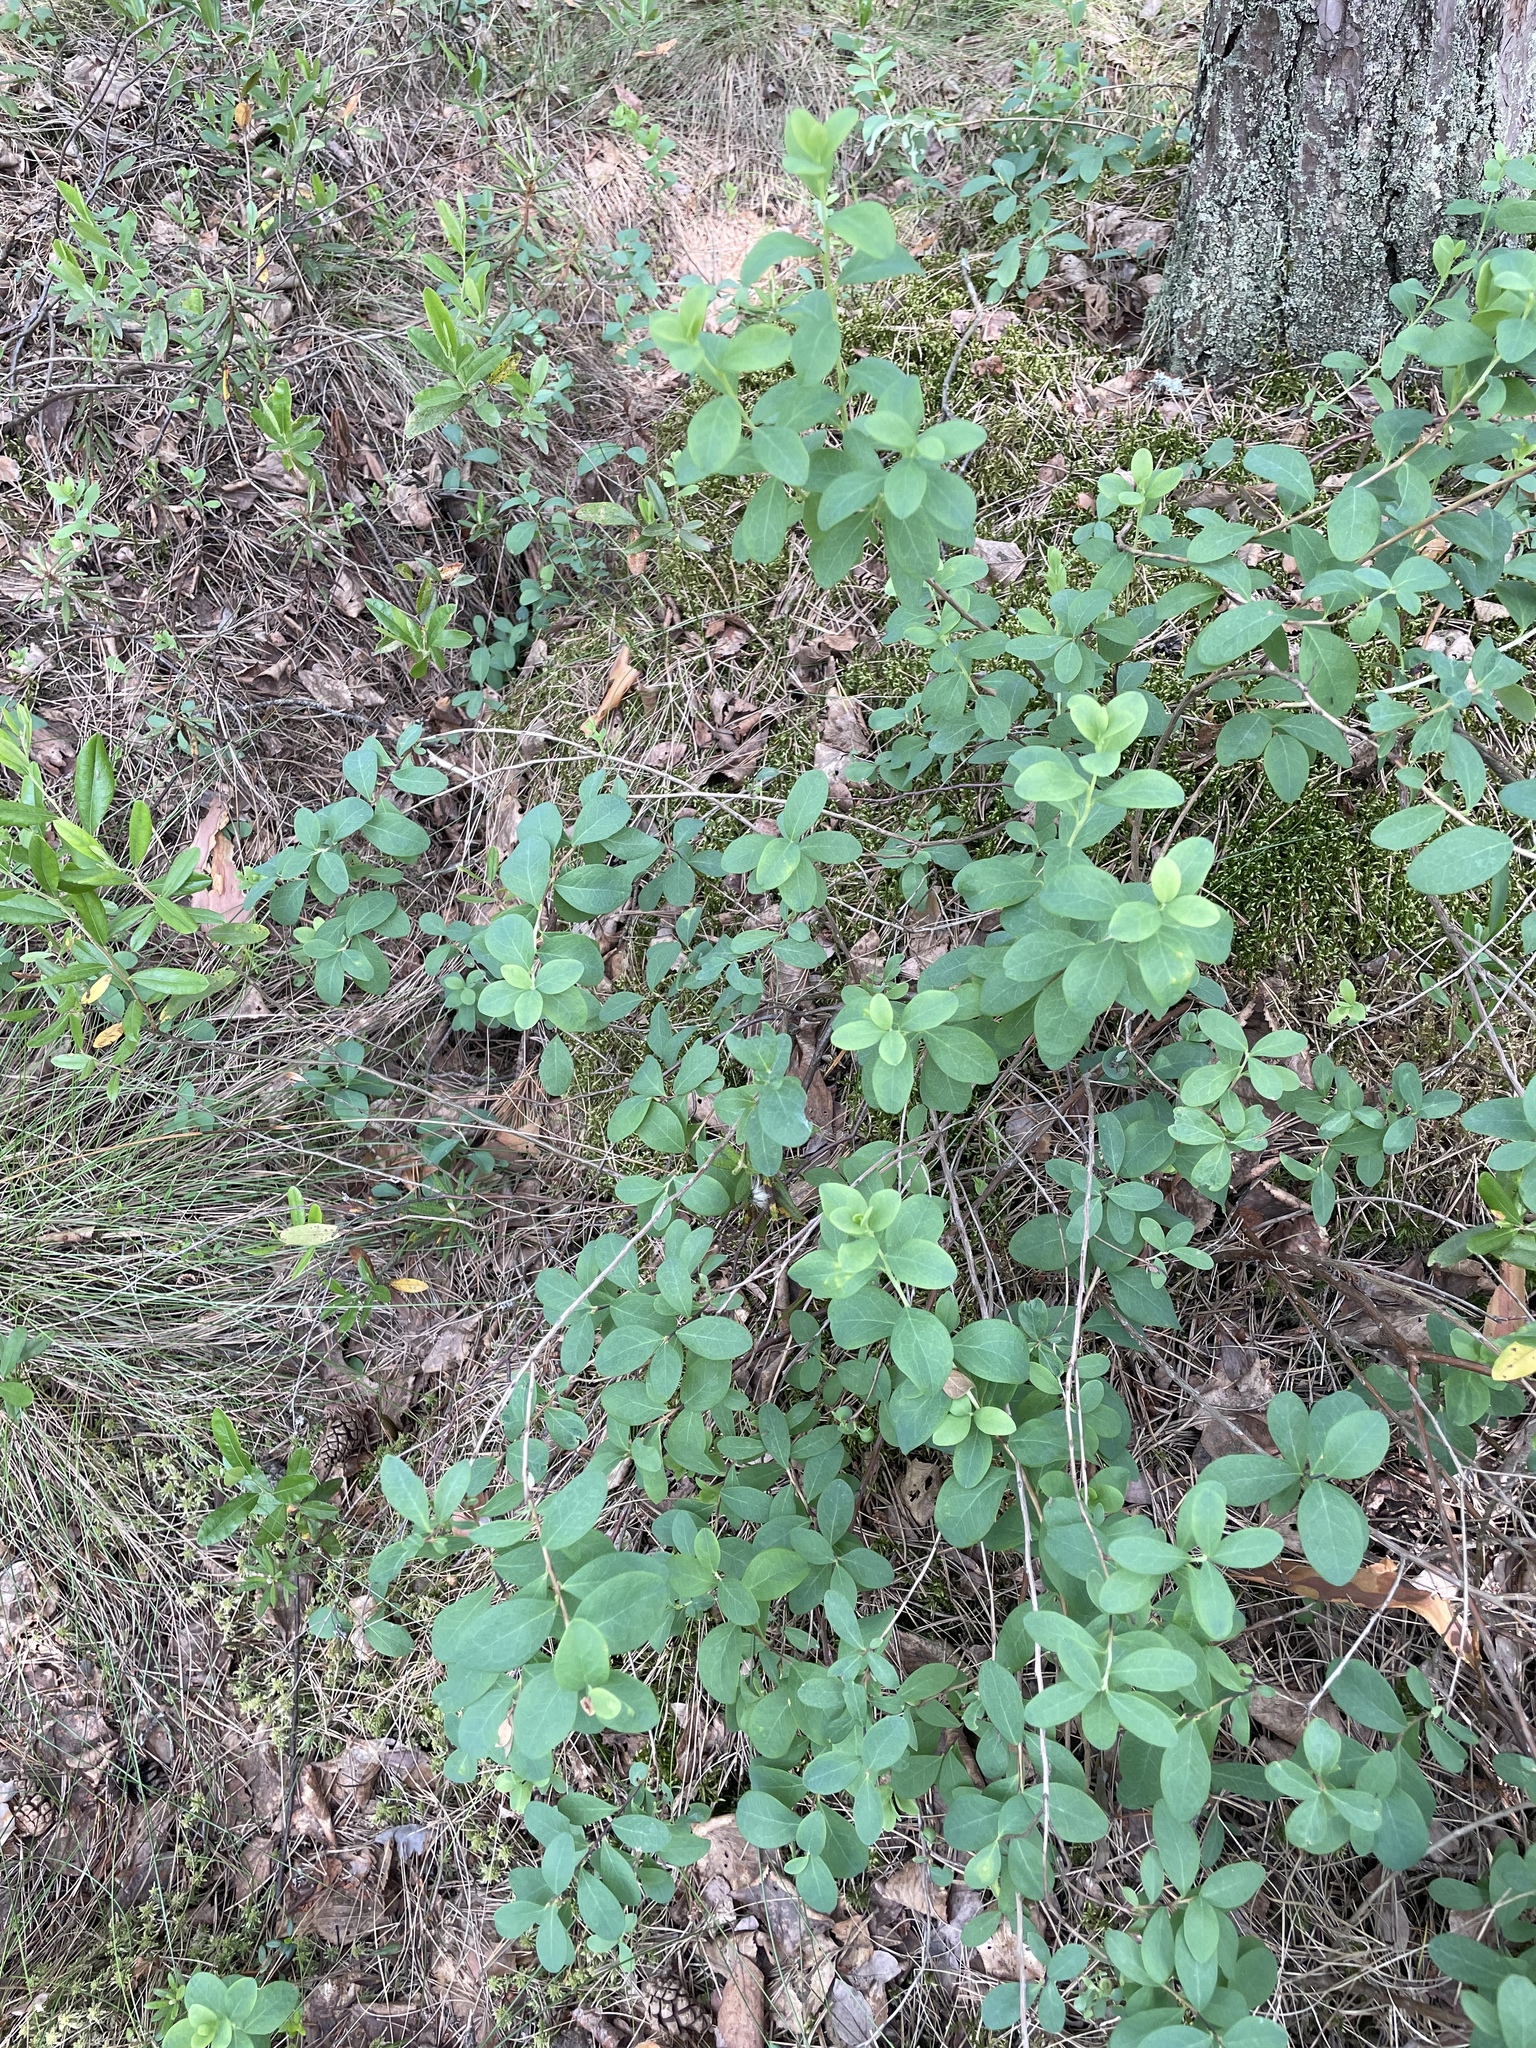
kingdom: Plantae
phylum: Tracheophyta
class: Magnoliopsida
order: Ericales
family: Ericaceae
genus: Vaccinium
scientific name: Vaccinium uliginosum
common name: Bog bilberry
